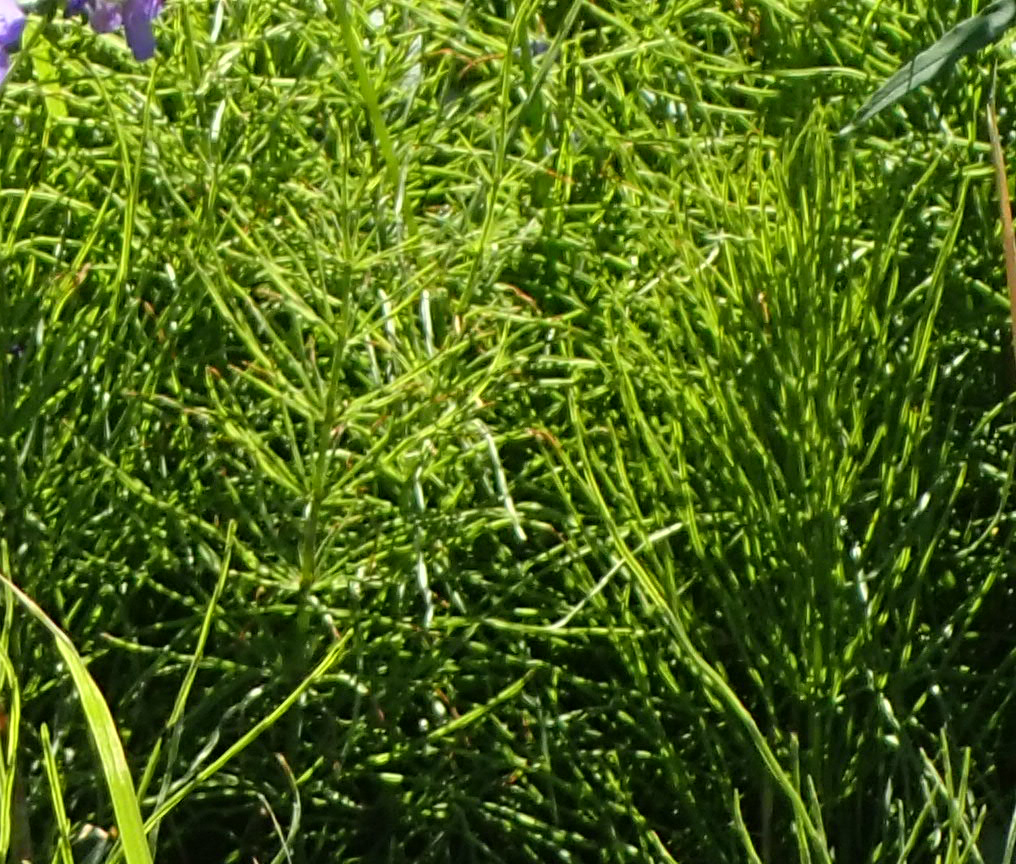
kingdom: Plantae
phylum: Tracheophyta
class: Polypodiopsida
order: Equisetales
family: Equisetaceae
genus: Equisetum
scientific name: Equisetum arvense
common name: Field horsetail
